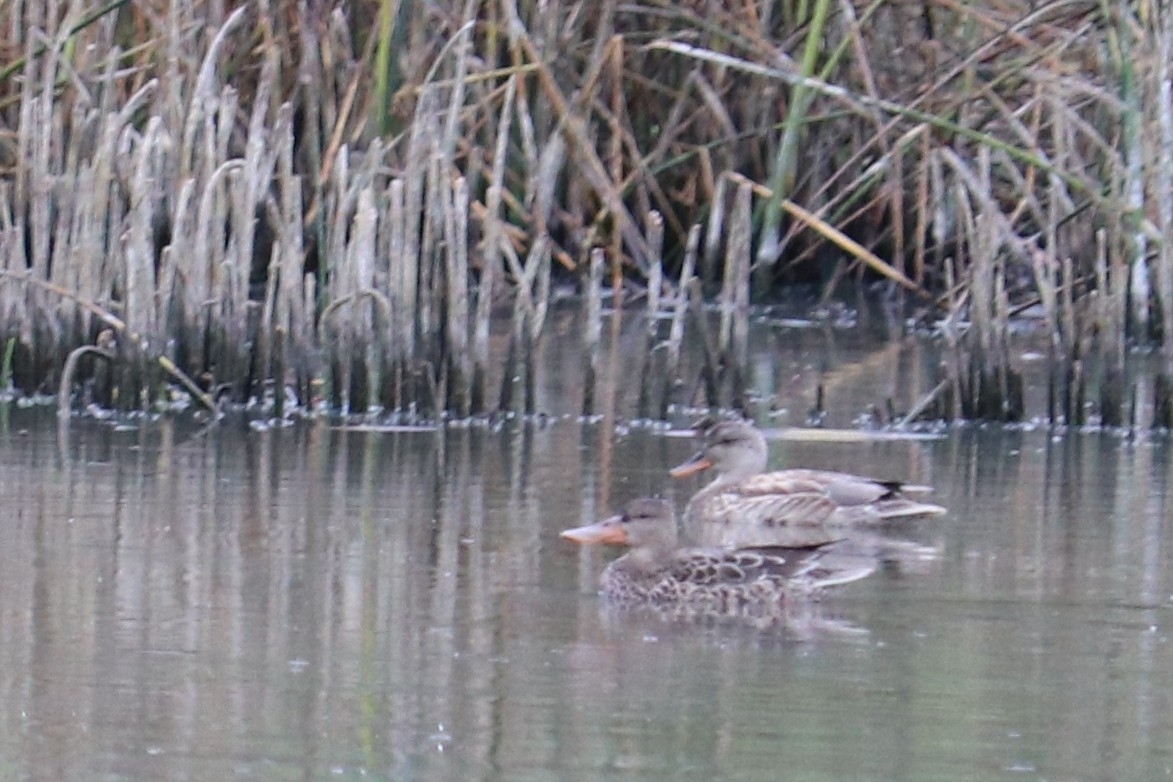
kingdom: Animalia
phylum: Chordata
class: Aves
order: Anseriformes
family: Anatidae
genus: Spatula
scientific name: Spatula clypeata
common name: Northern shoveler
